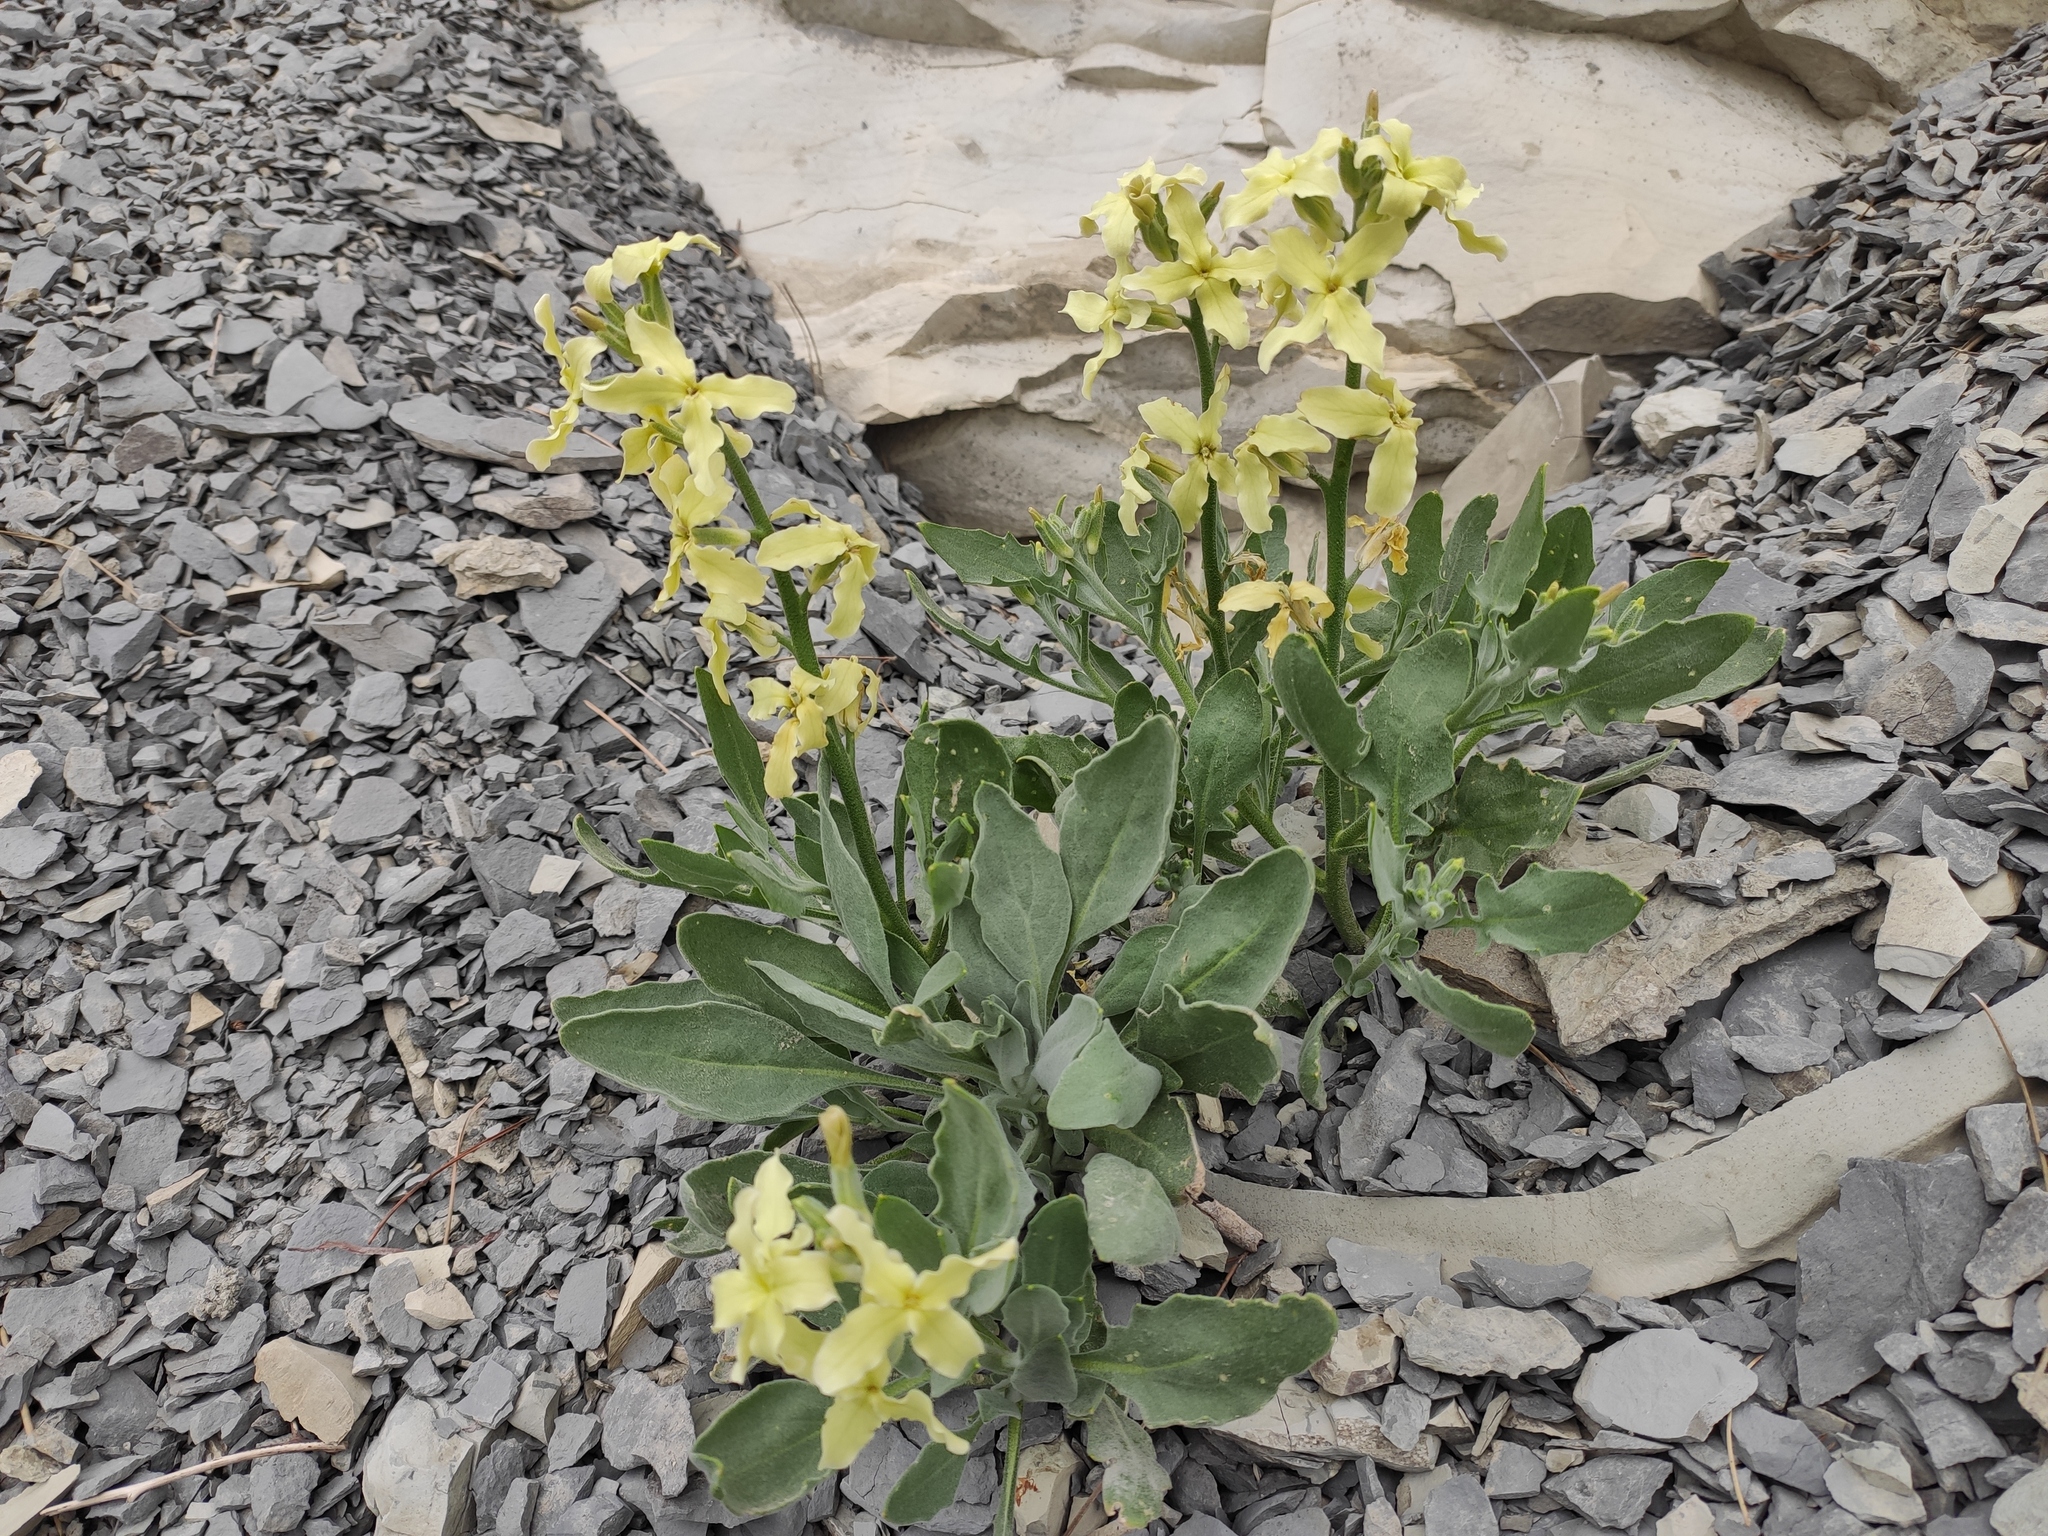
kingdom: Plantae
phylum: Tracheophyta
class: Magnoliopsida
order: Brassicales
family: Brassicaceae
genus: Matthiola
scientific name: Matthiola odoratissima
